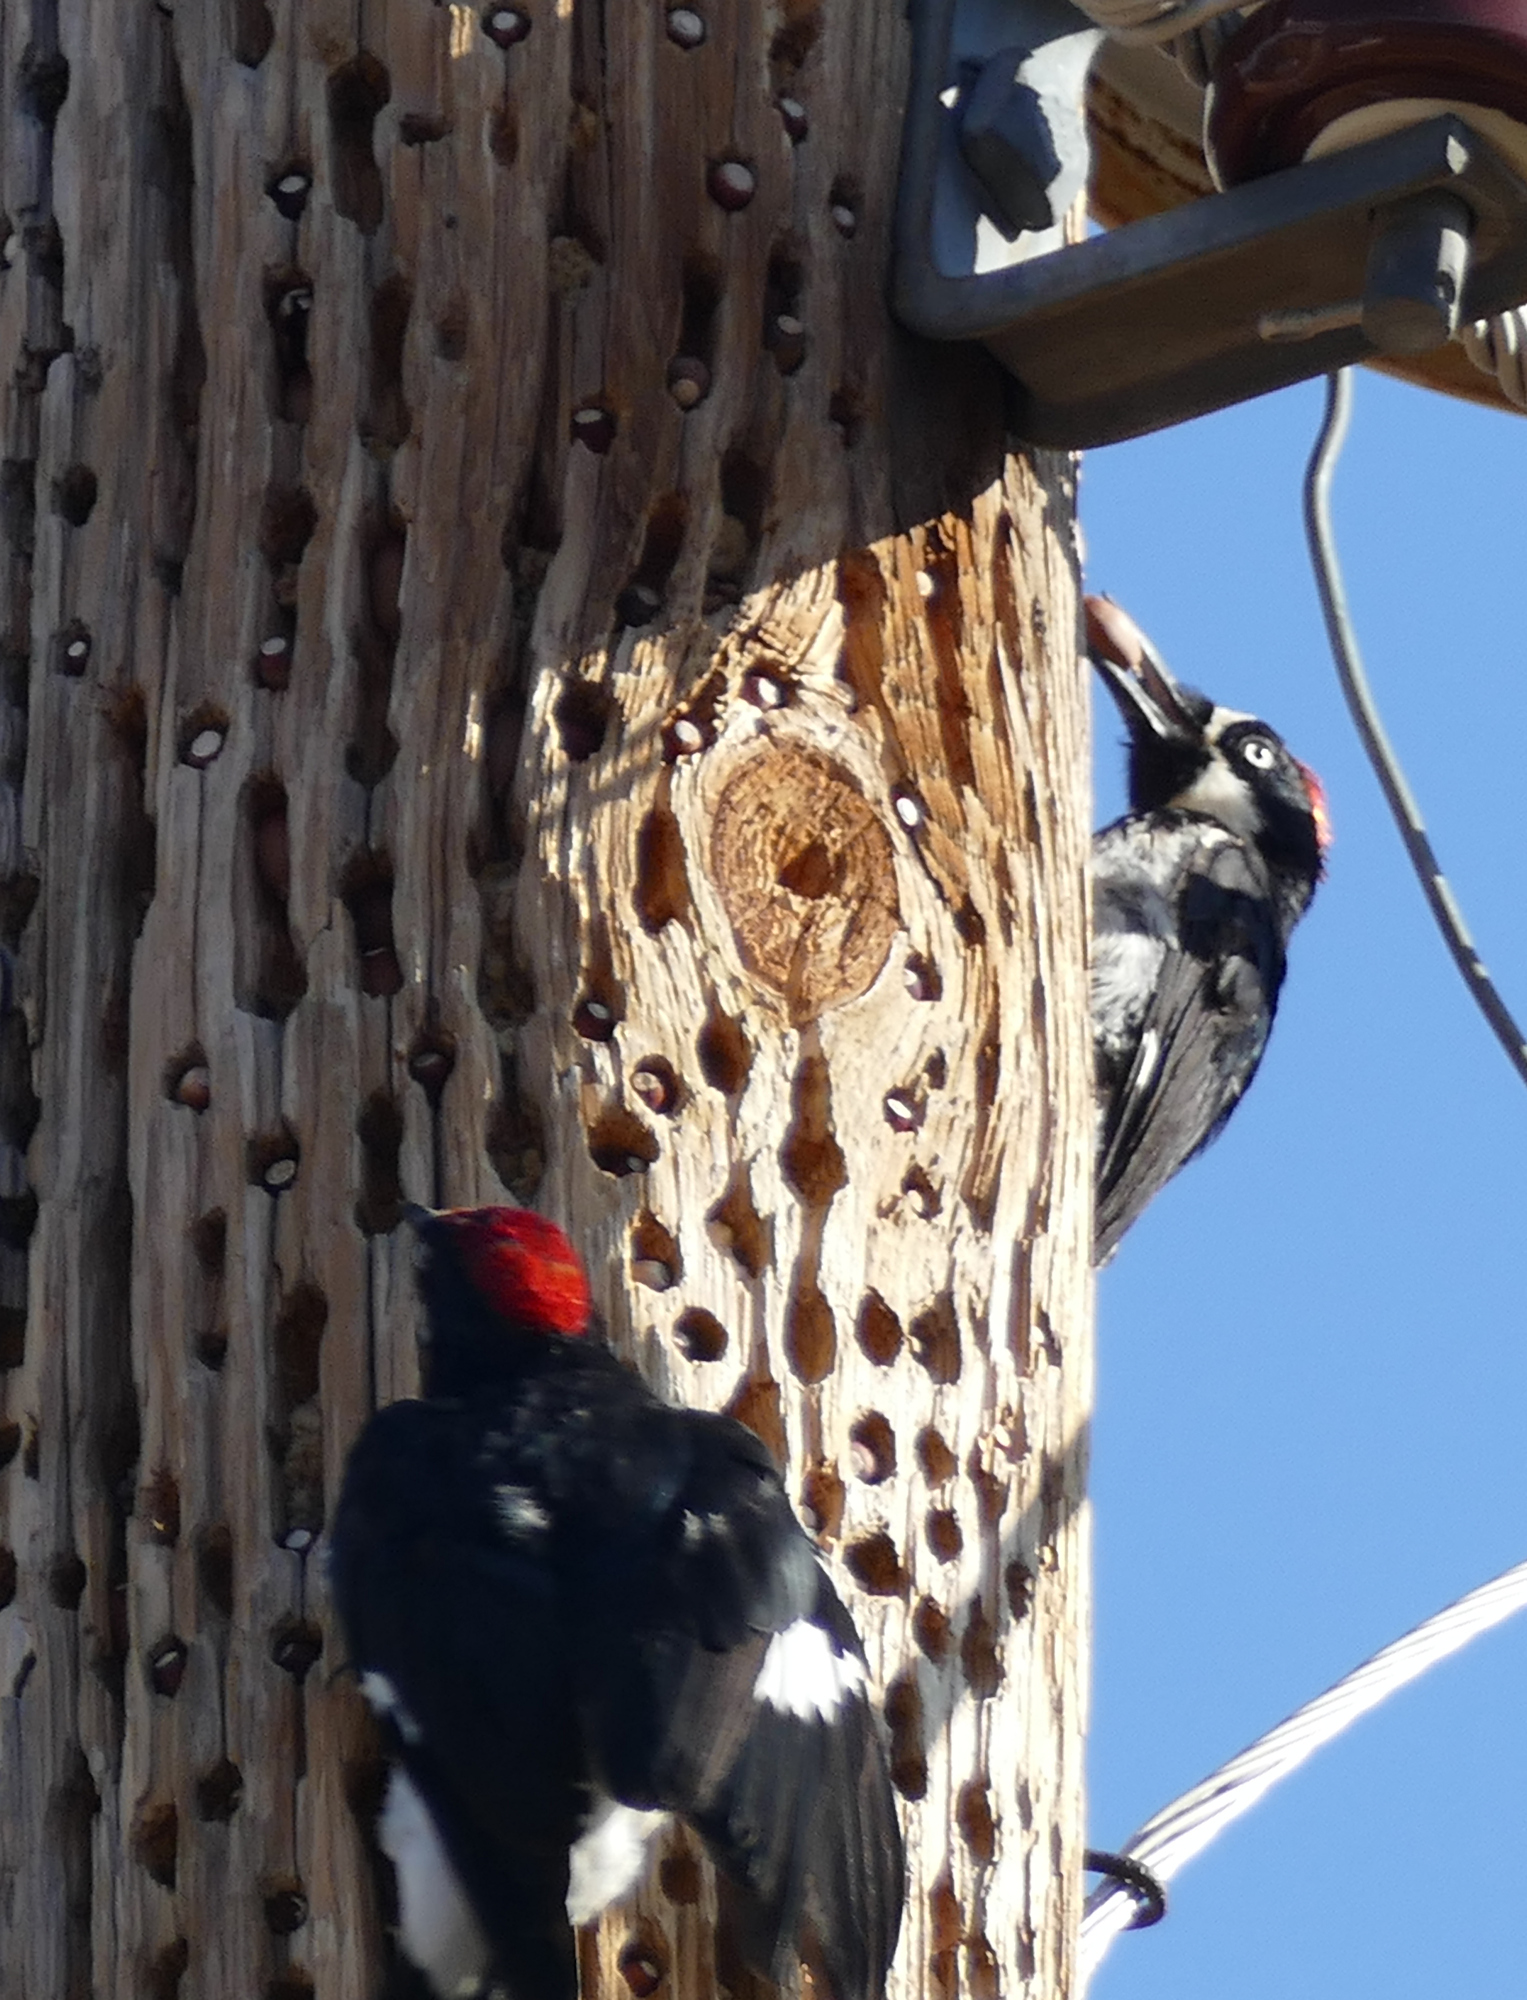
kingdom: Animalia
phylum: Chordata
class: Aves
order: Piciformes
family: Picidae
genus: Melanerpes
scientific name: Melanerpes formicivorus
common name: Acorn woodpecker
